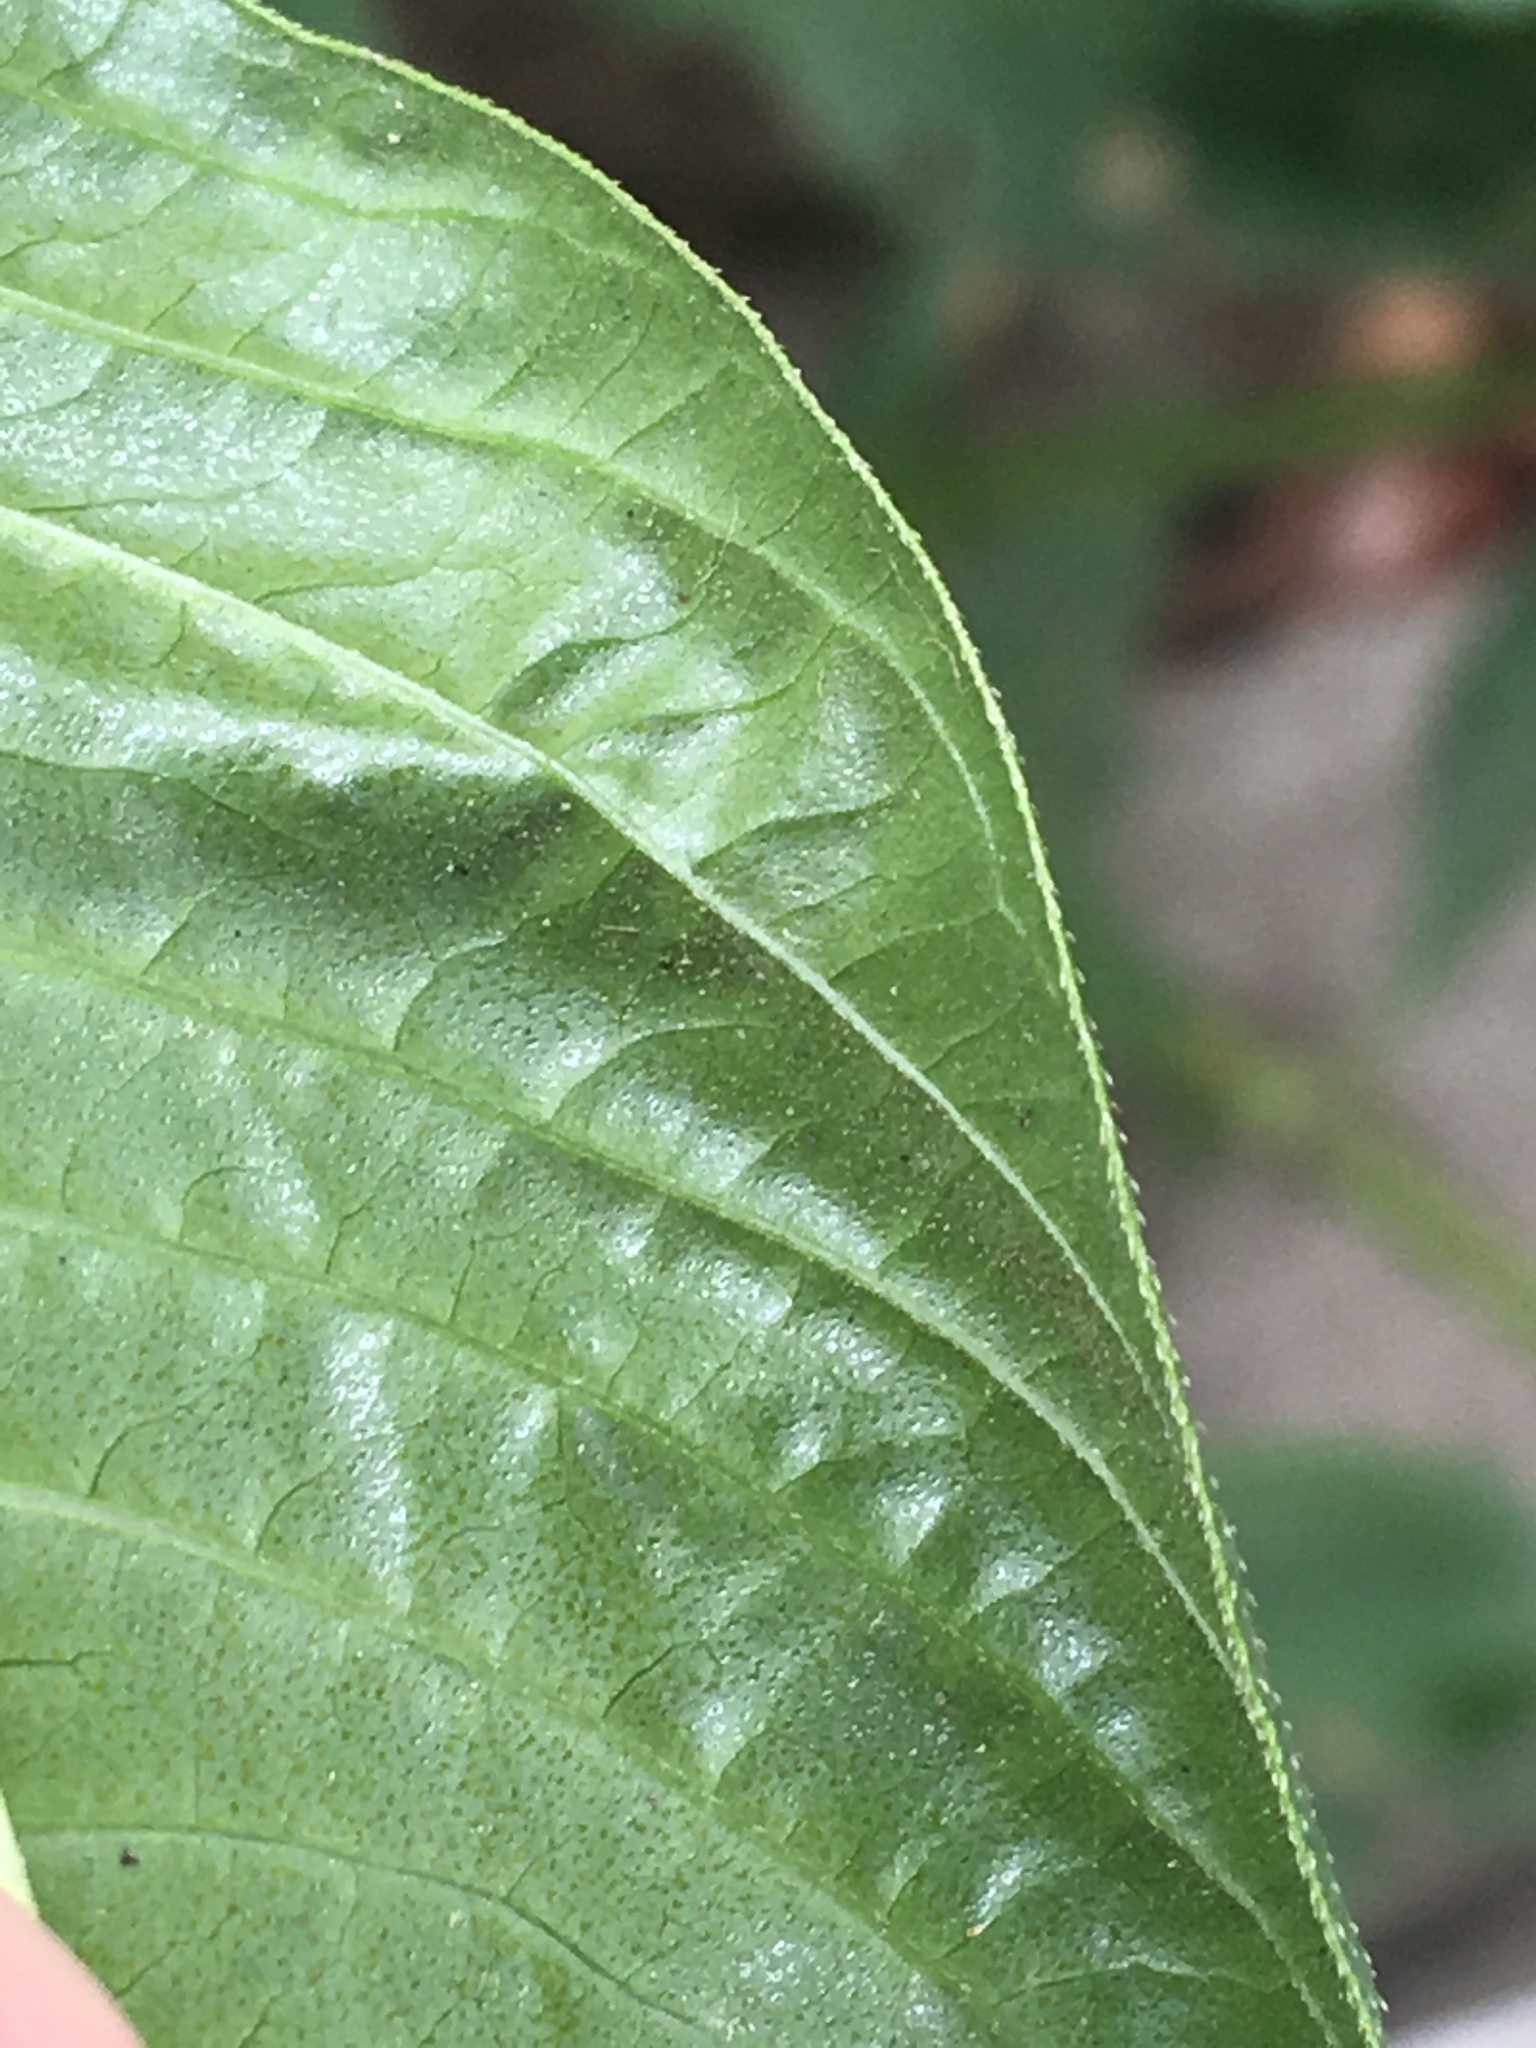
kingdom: Plantae
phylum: Tracheophyta
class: Magnoliopsida
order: Caryophyllales
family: Polygonaceae
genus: Persicaria
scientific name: Persicaria lapathifolia
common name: Curlytop knotweed
